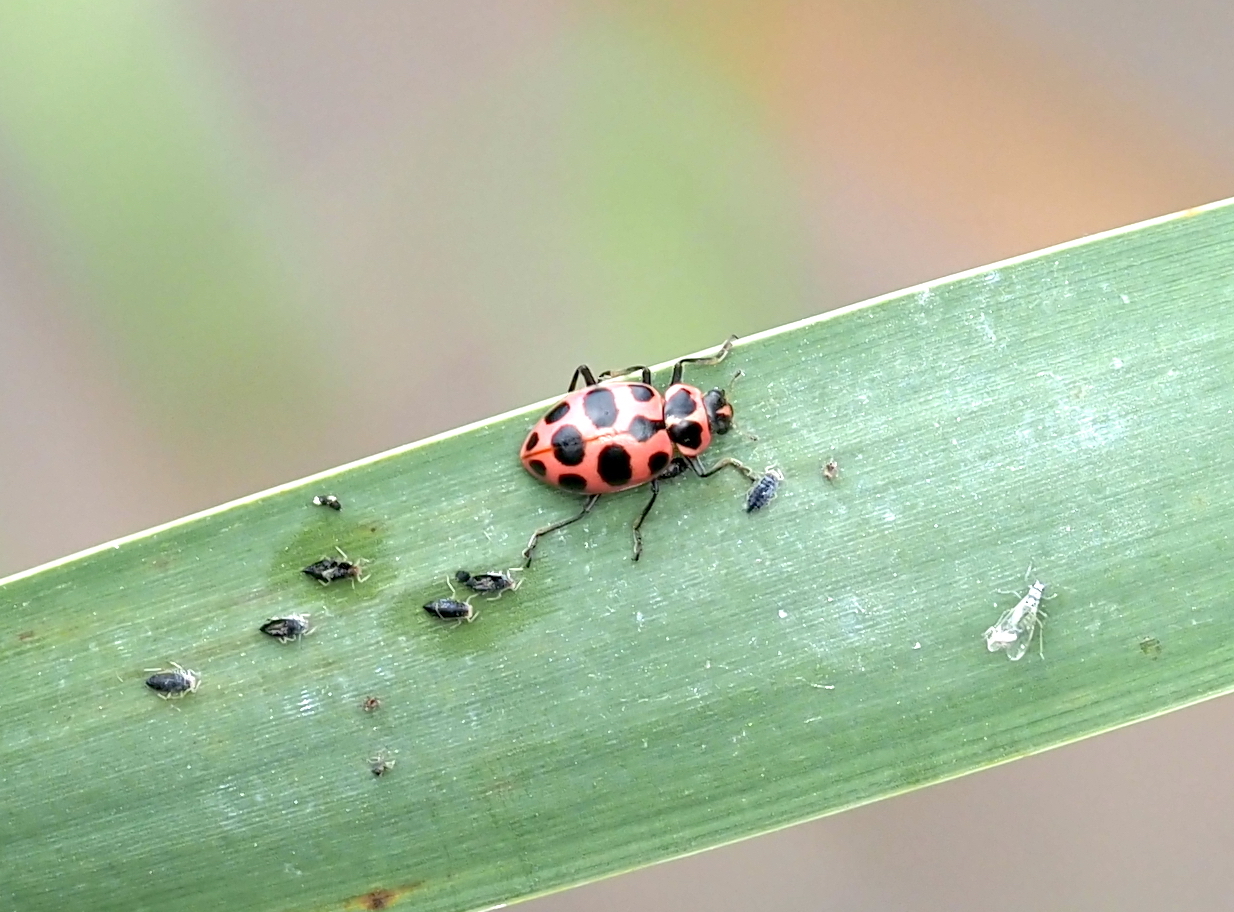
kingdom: Animalia
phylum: Arthropoda
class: Insecta
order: Coleoptera
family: Coccinellidae
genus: Coleomegilla
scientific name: Coleomegilla maculata
